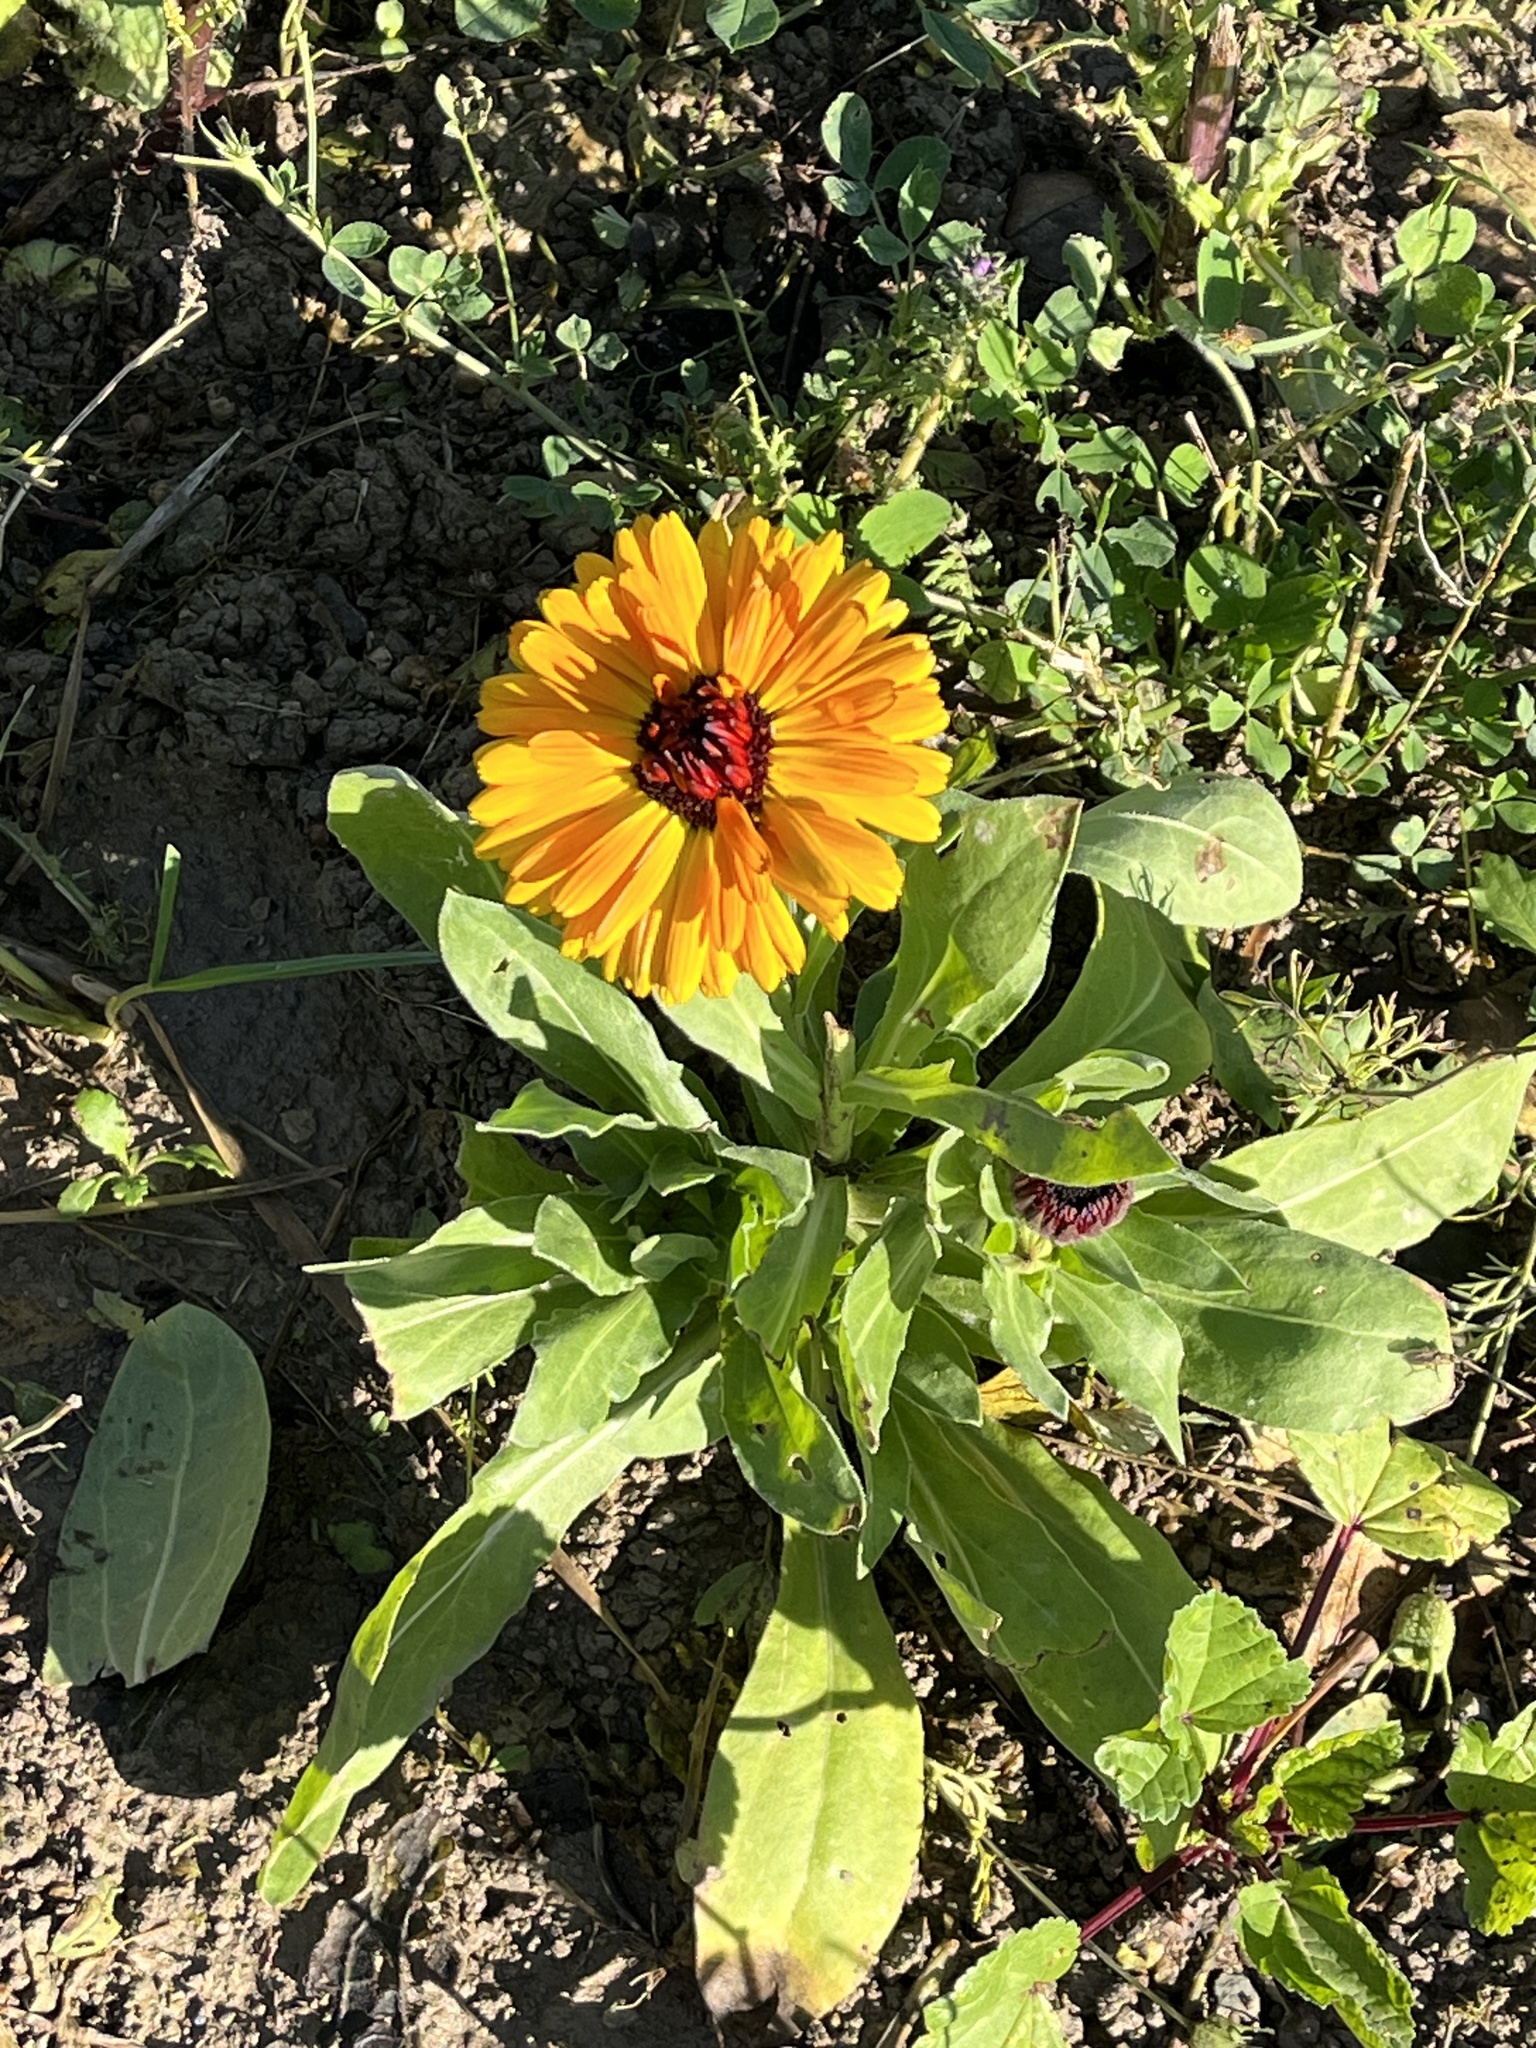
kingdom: Plantae
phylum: Tracheophyta
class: Magnoliopsida
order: Asterales
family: Asteraceae
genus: Calendula
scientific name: Calendula officinalis
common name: Pot marigold
